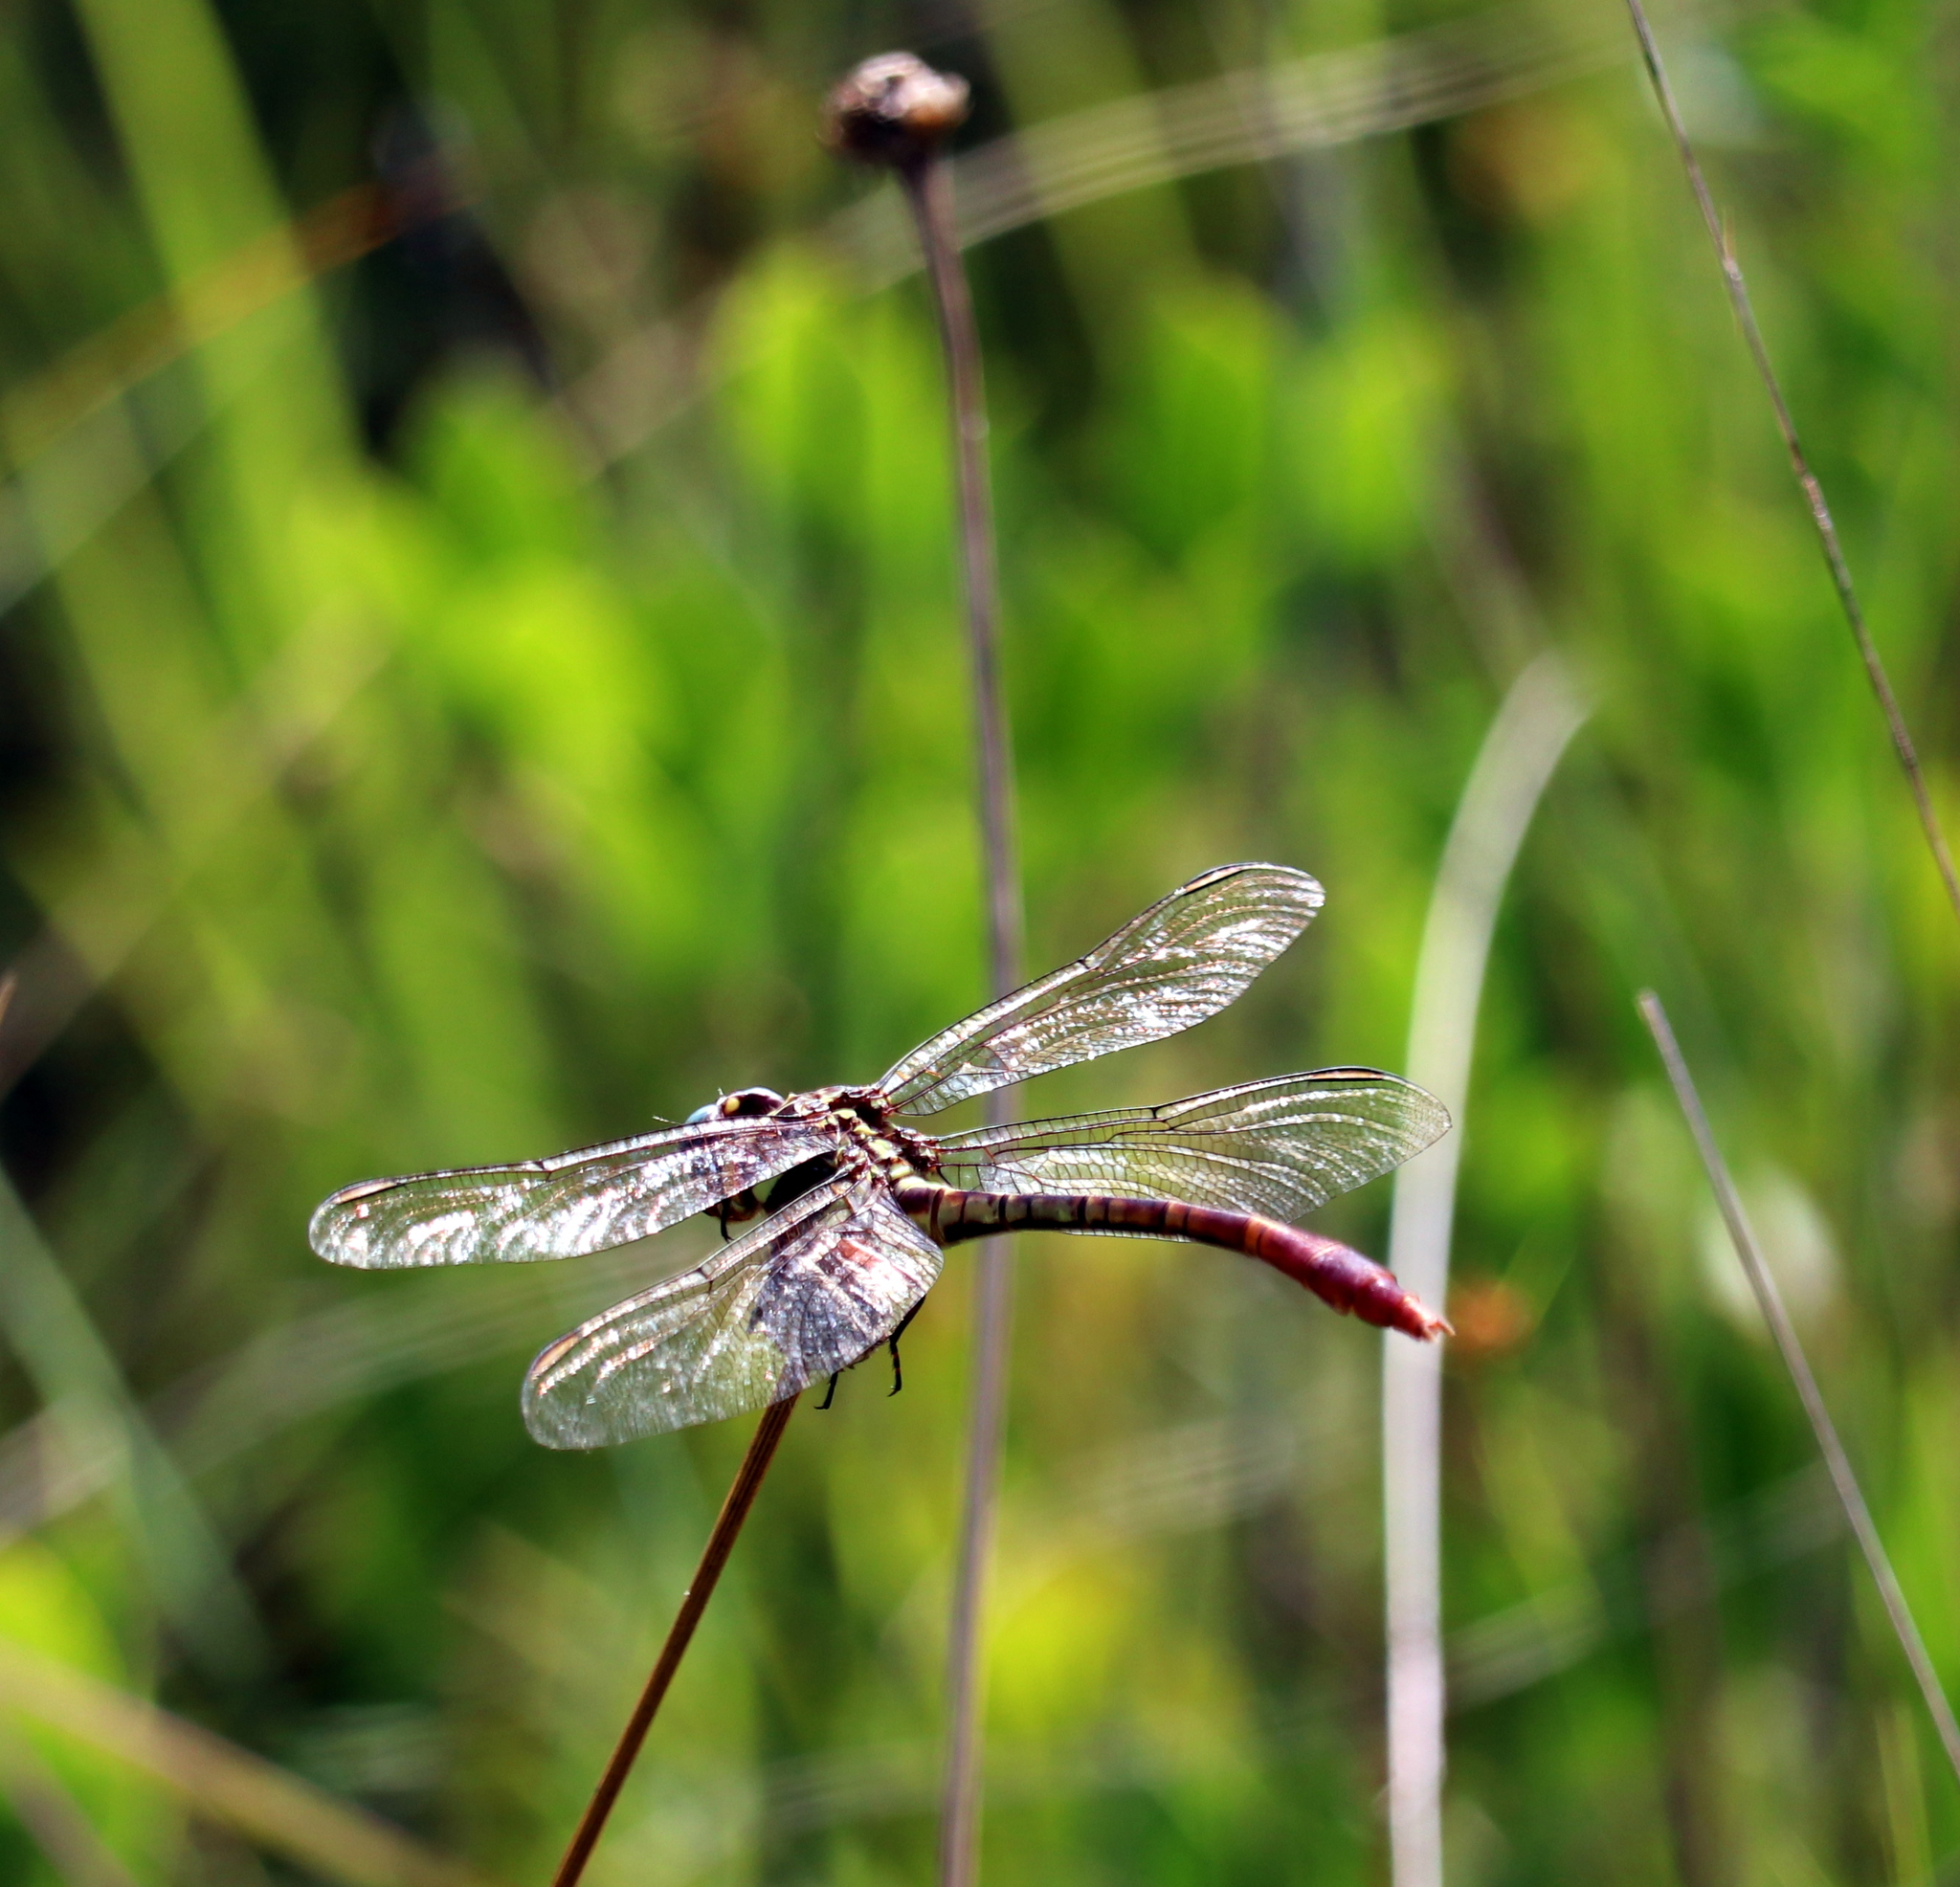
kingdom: Animalia
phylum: Arthropoda
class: Insecta
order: Odonata
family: Gomphidae
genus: Aphylla
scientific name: Aphylla williamsoni
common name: Two-striped forceptail
